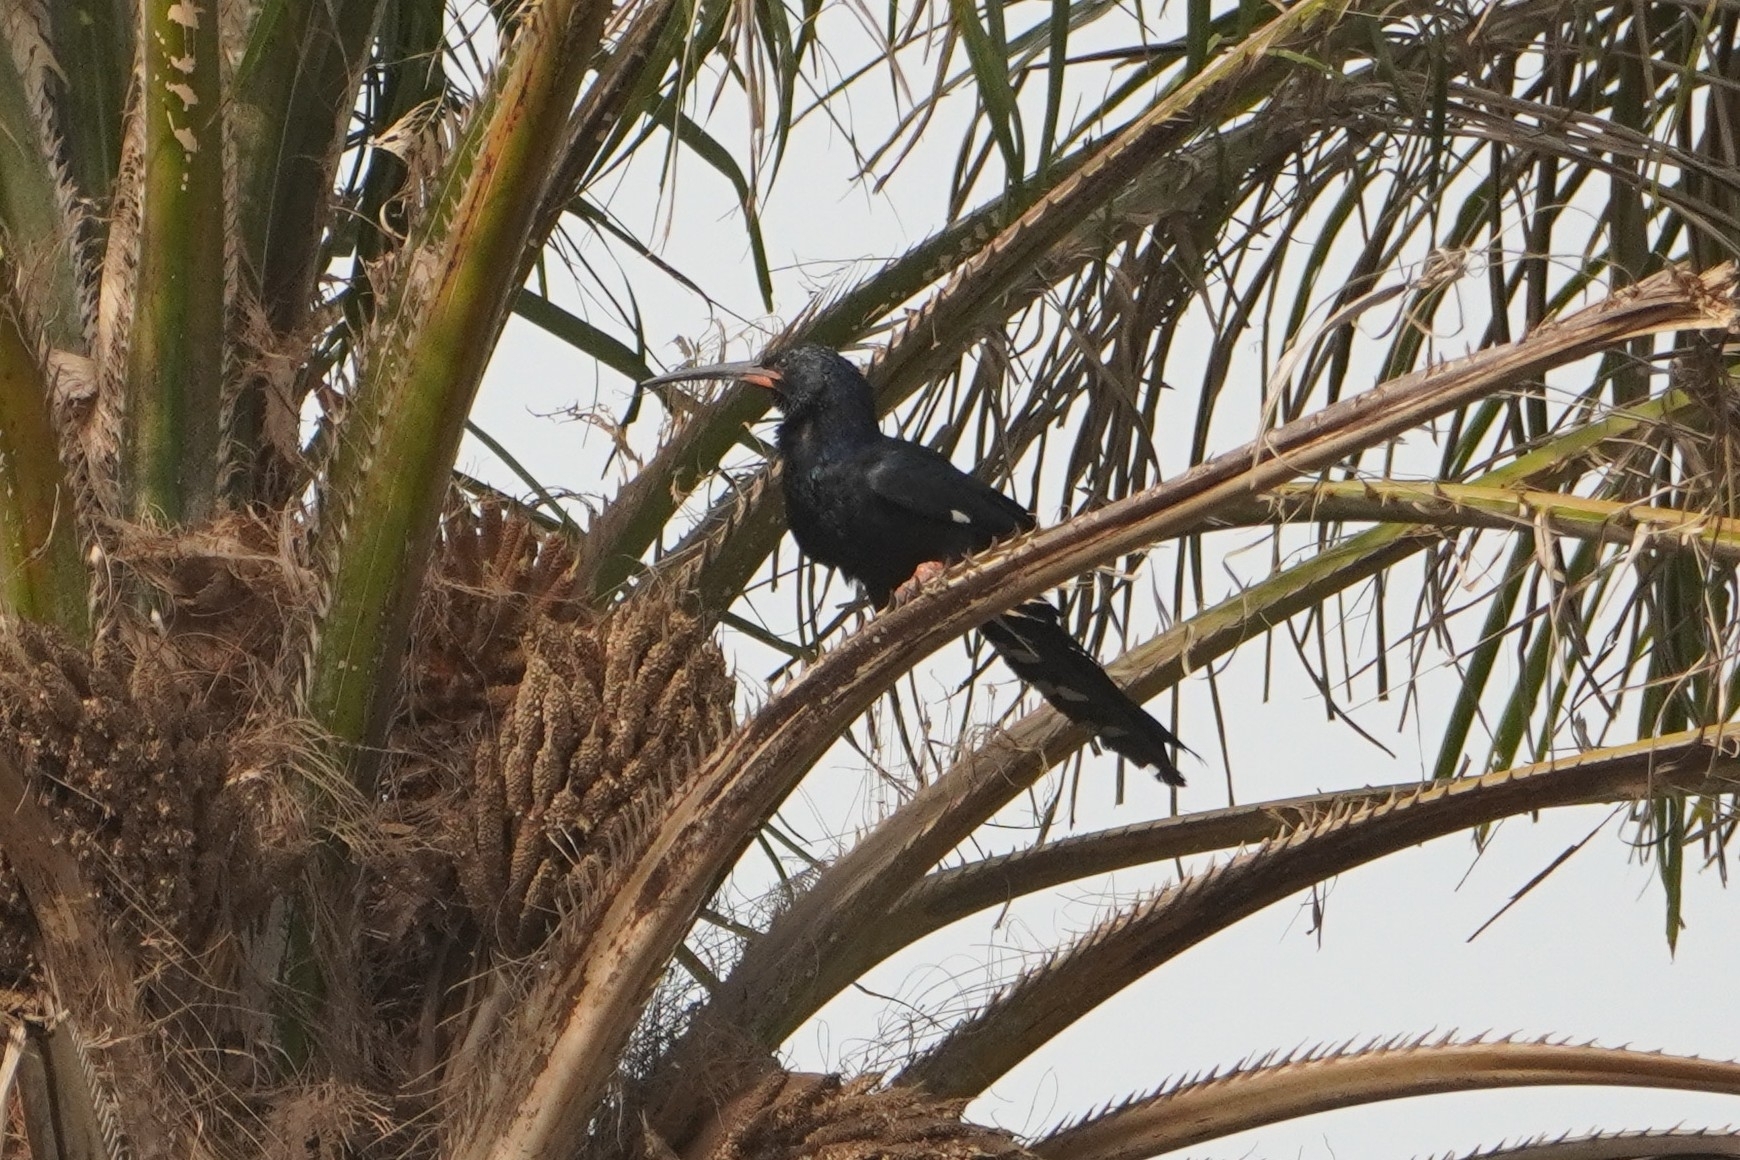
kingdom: Animalia
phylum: Chordata
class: Aves
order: Bucerotiformes
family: Phoeniculidae
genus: Phoeniculus
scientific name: Phoeniculus purpureus
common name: Green woodhoopoe
